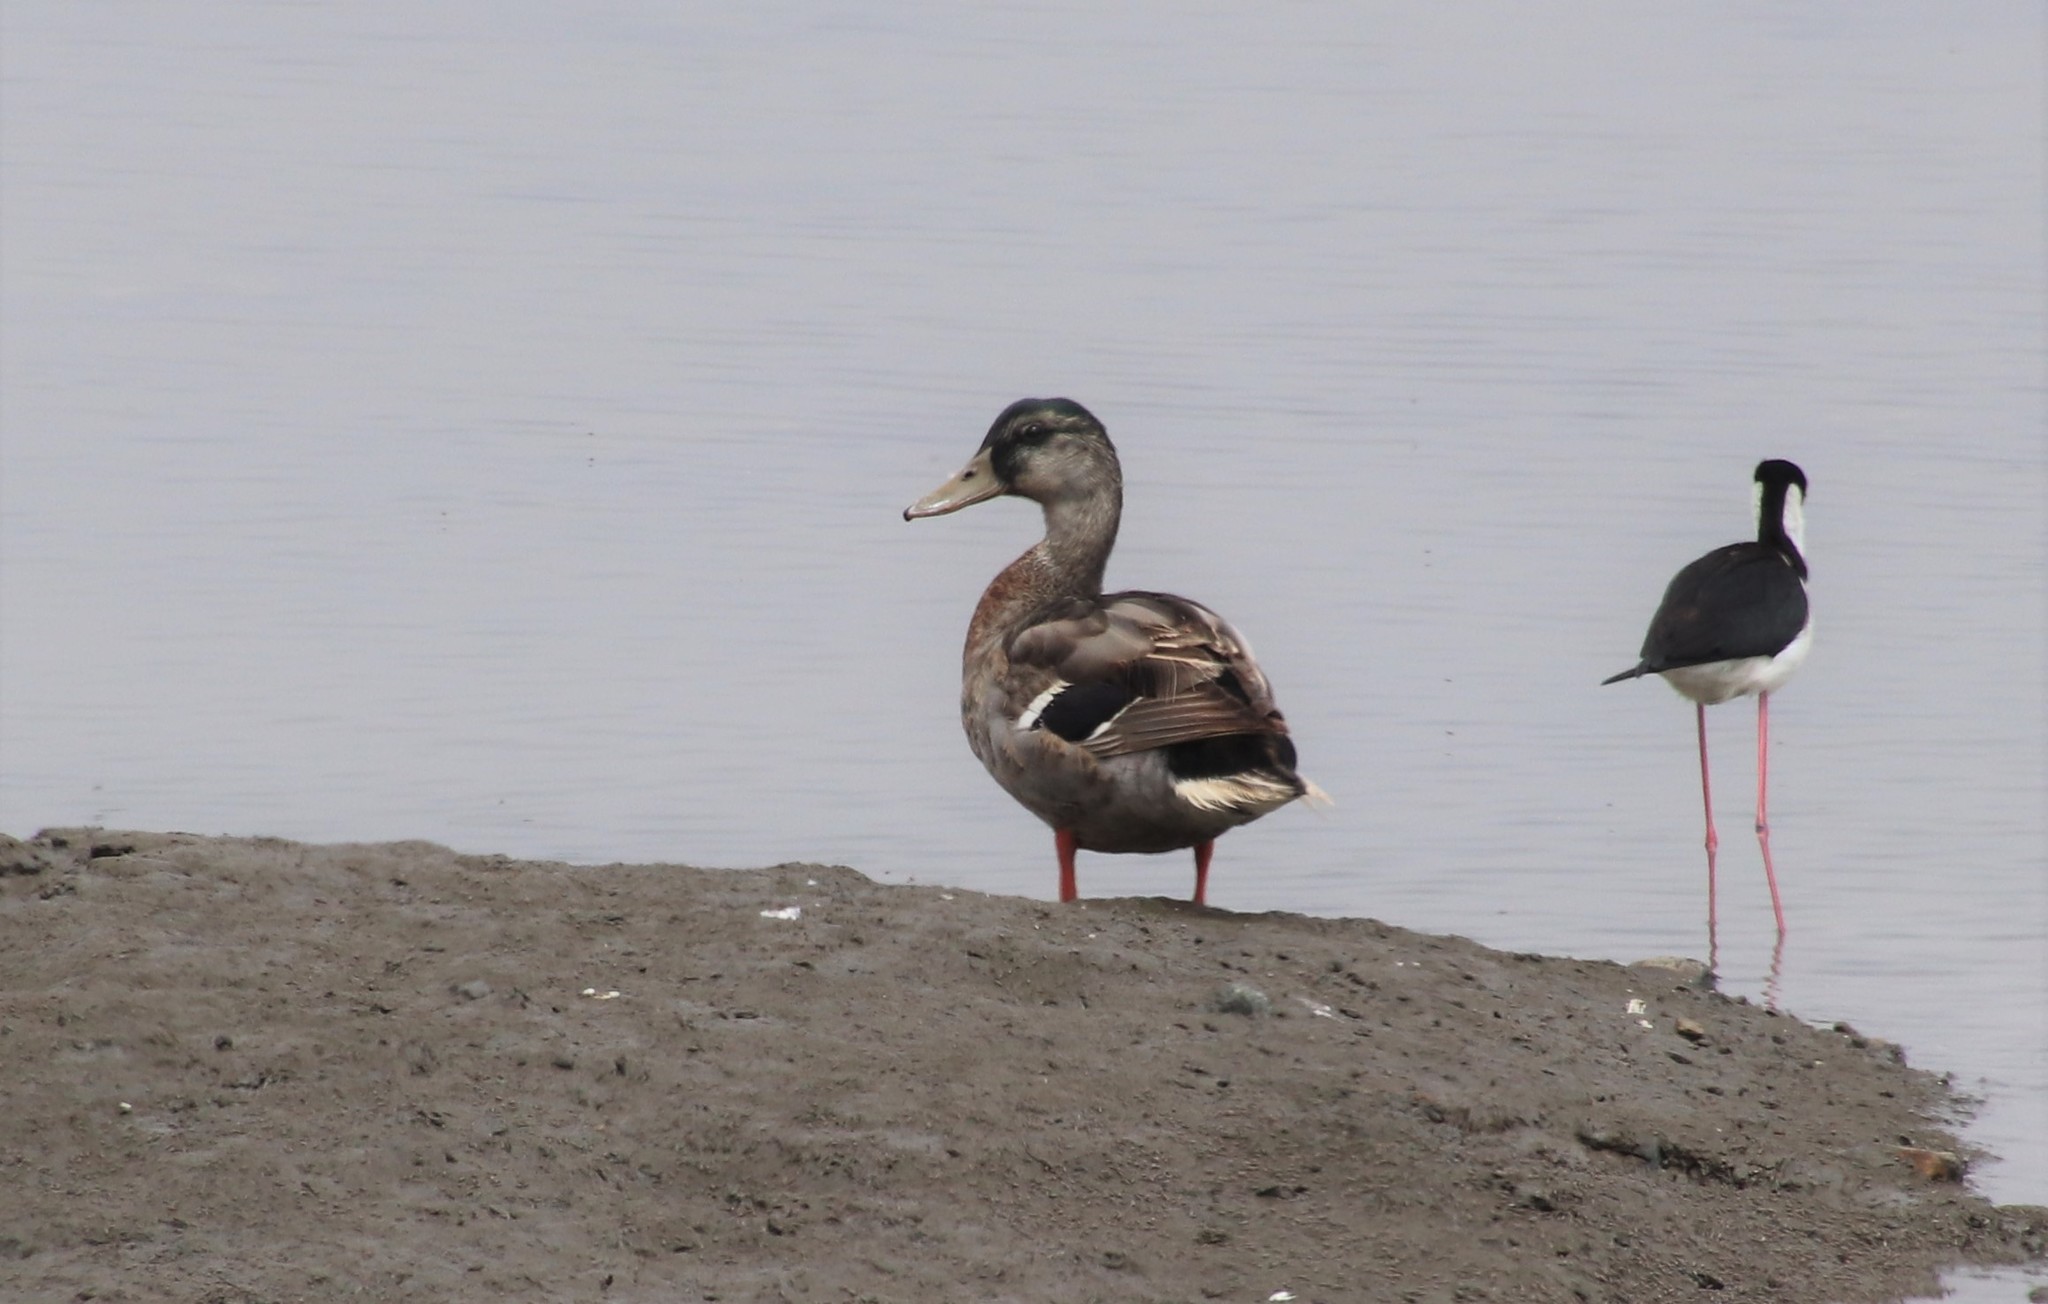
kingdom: Animalia
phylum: Chordata
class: Aves
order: Anseriformes
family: Anatidae
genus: Anas
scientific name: Anas platyrhynchos
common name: Mallard
